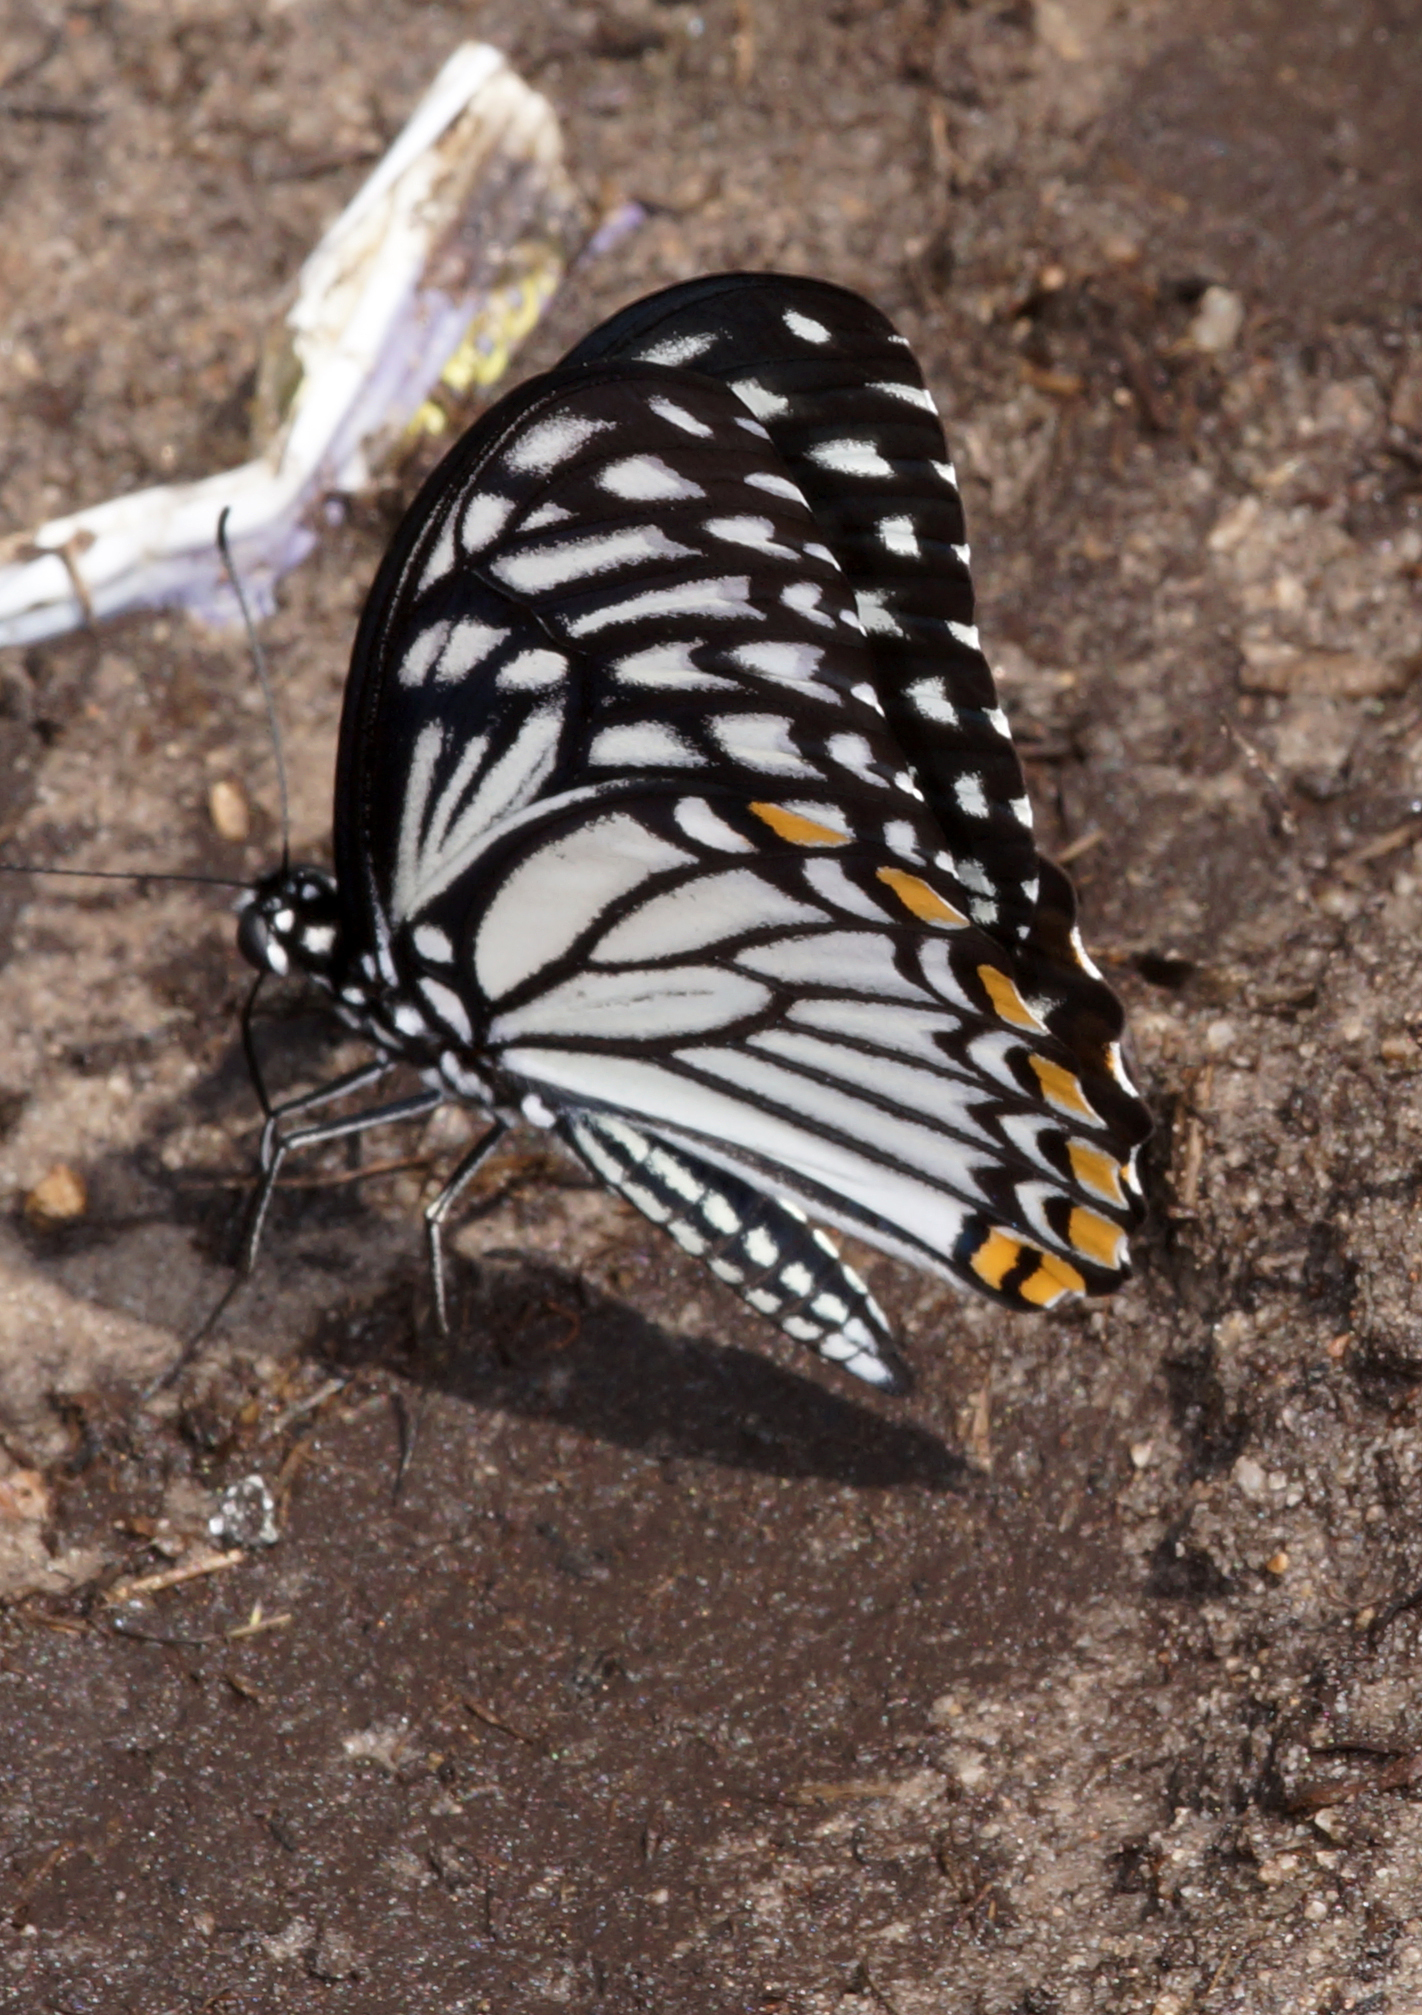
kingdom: Animalia
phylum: Arthropoda
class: Insecta
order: Lepidoptera
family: Papilionidae
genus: Chilasa
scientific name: Chilasa clytia
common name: Common mime
